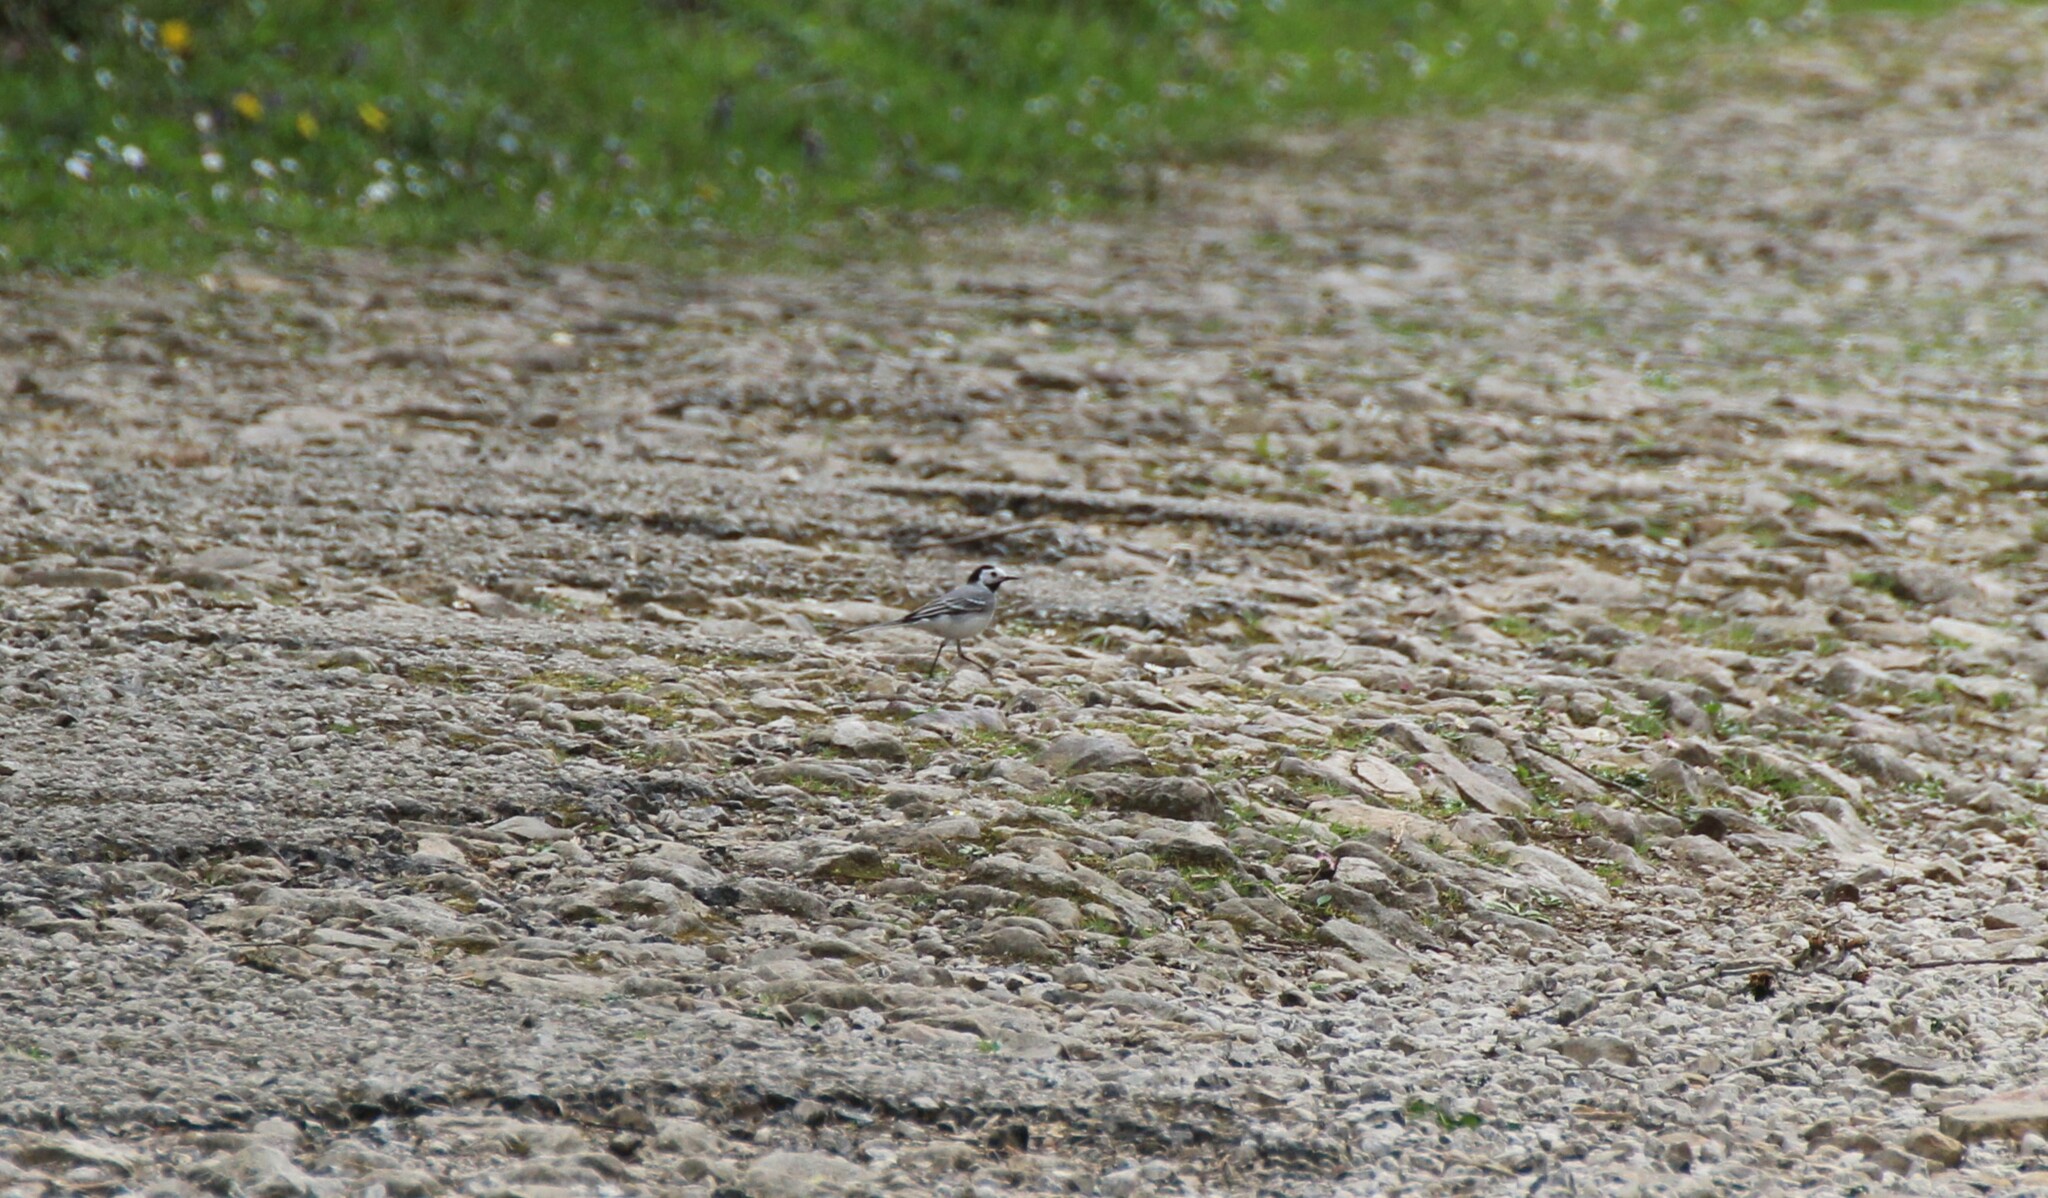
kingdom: Animalia
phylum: Chordata
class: Aves
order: Passeriformes
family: Motacillidae
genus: Motacilla
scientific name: Motacilla alba
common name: White wagtail
